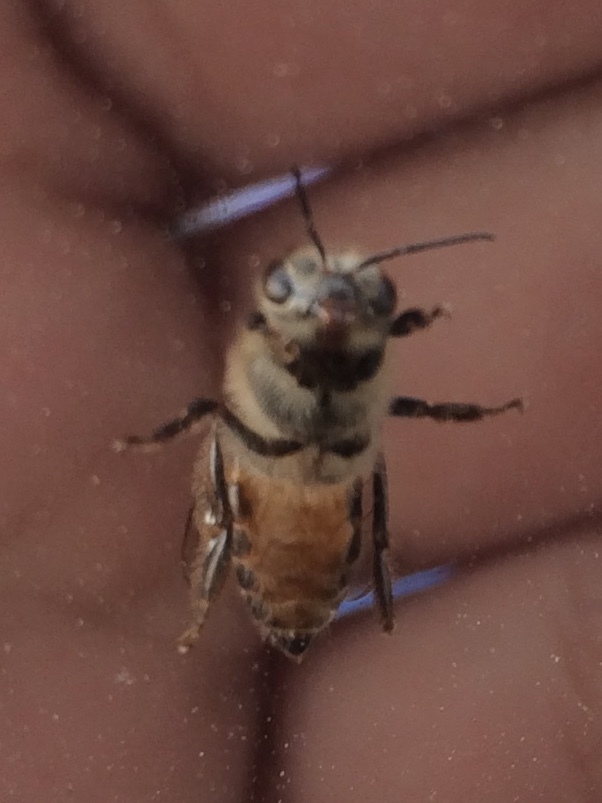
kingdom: Animalia
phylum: Arthropoda
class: Insecta
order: Hymenoptera
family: Apidae
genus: Apis
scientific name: Apis cerana
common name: Honey bee
